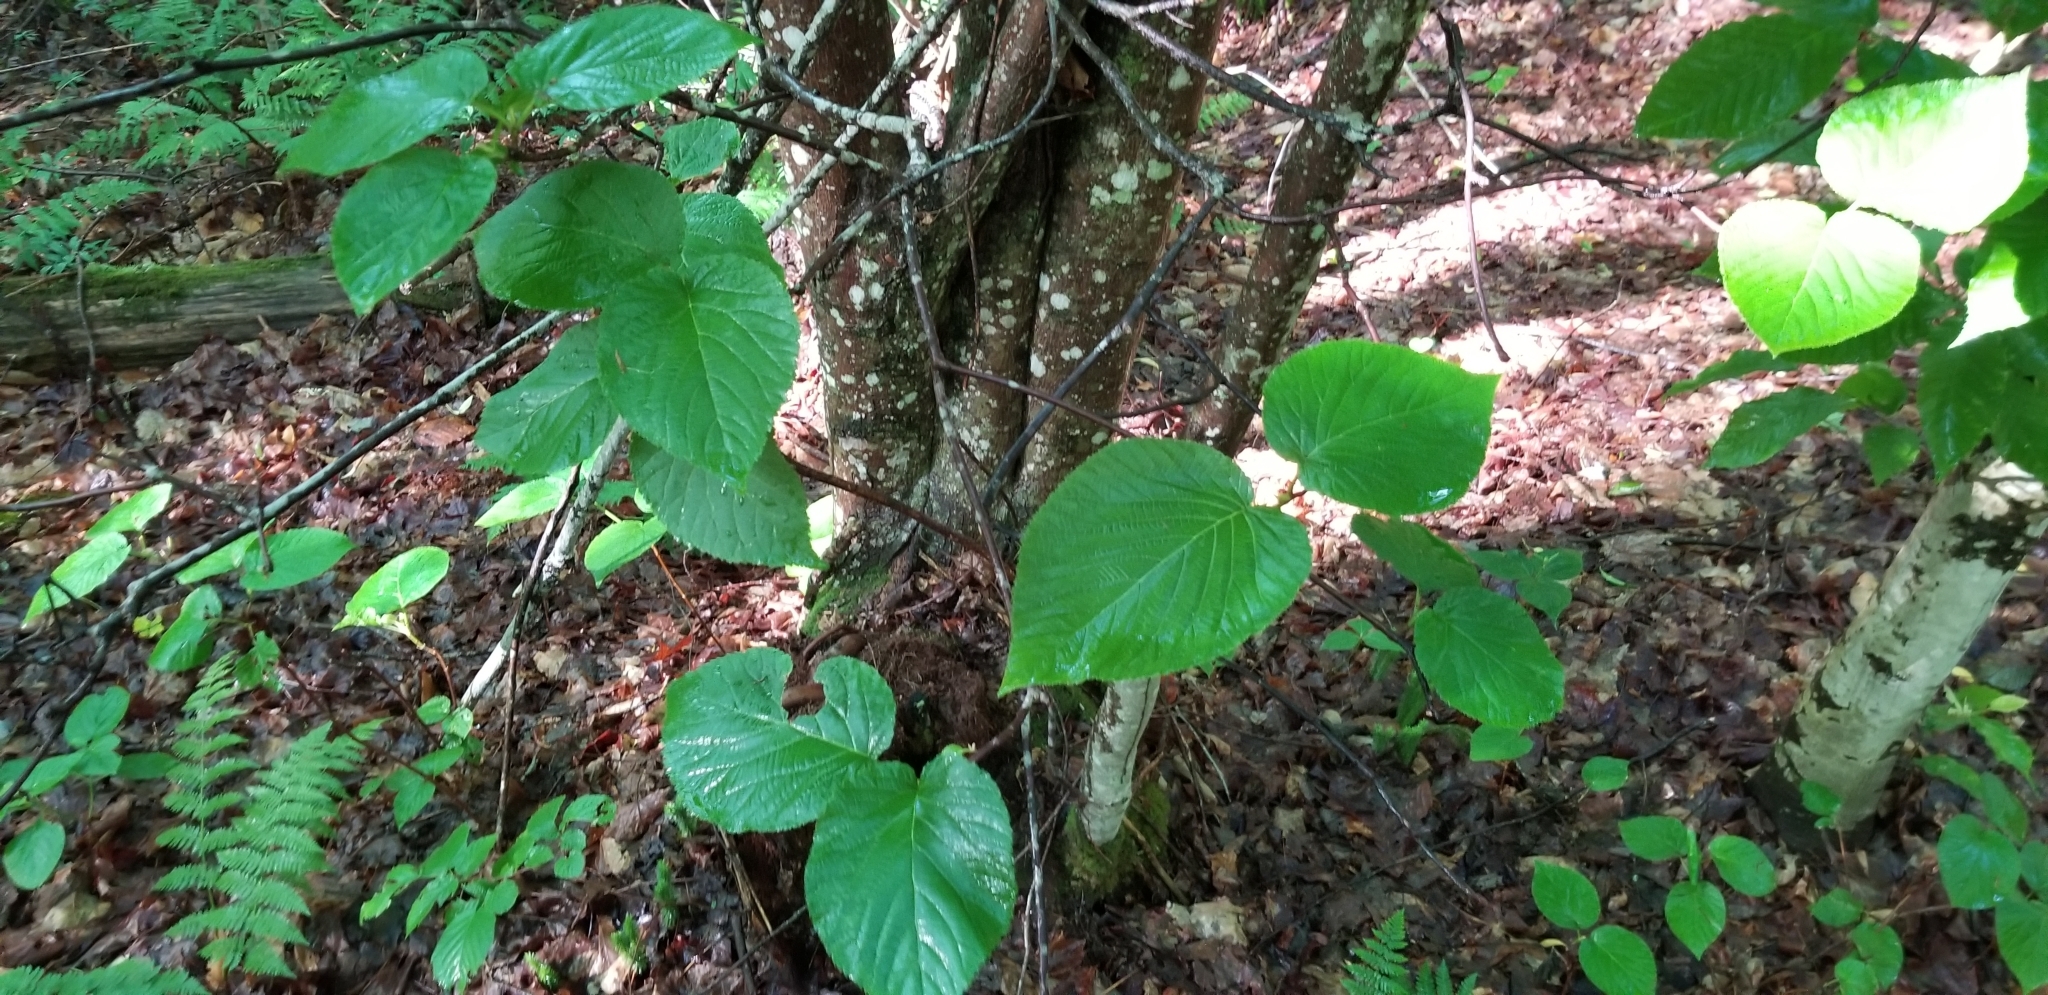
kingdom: Plantae
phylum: Tracheophyta
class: Magnoliopsida
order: Dipsacales
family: Viburnaceae
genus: Viburnum
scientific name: Viburnum lantanoides
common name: Hobblebush
